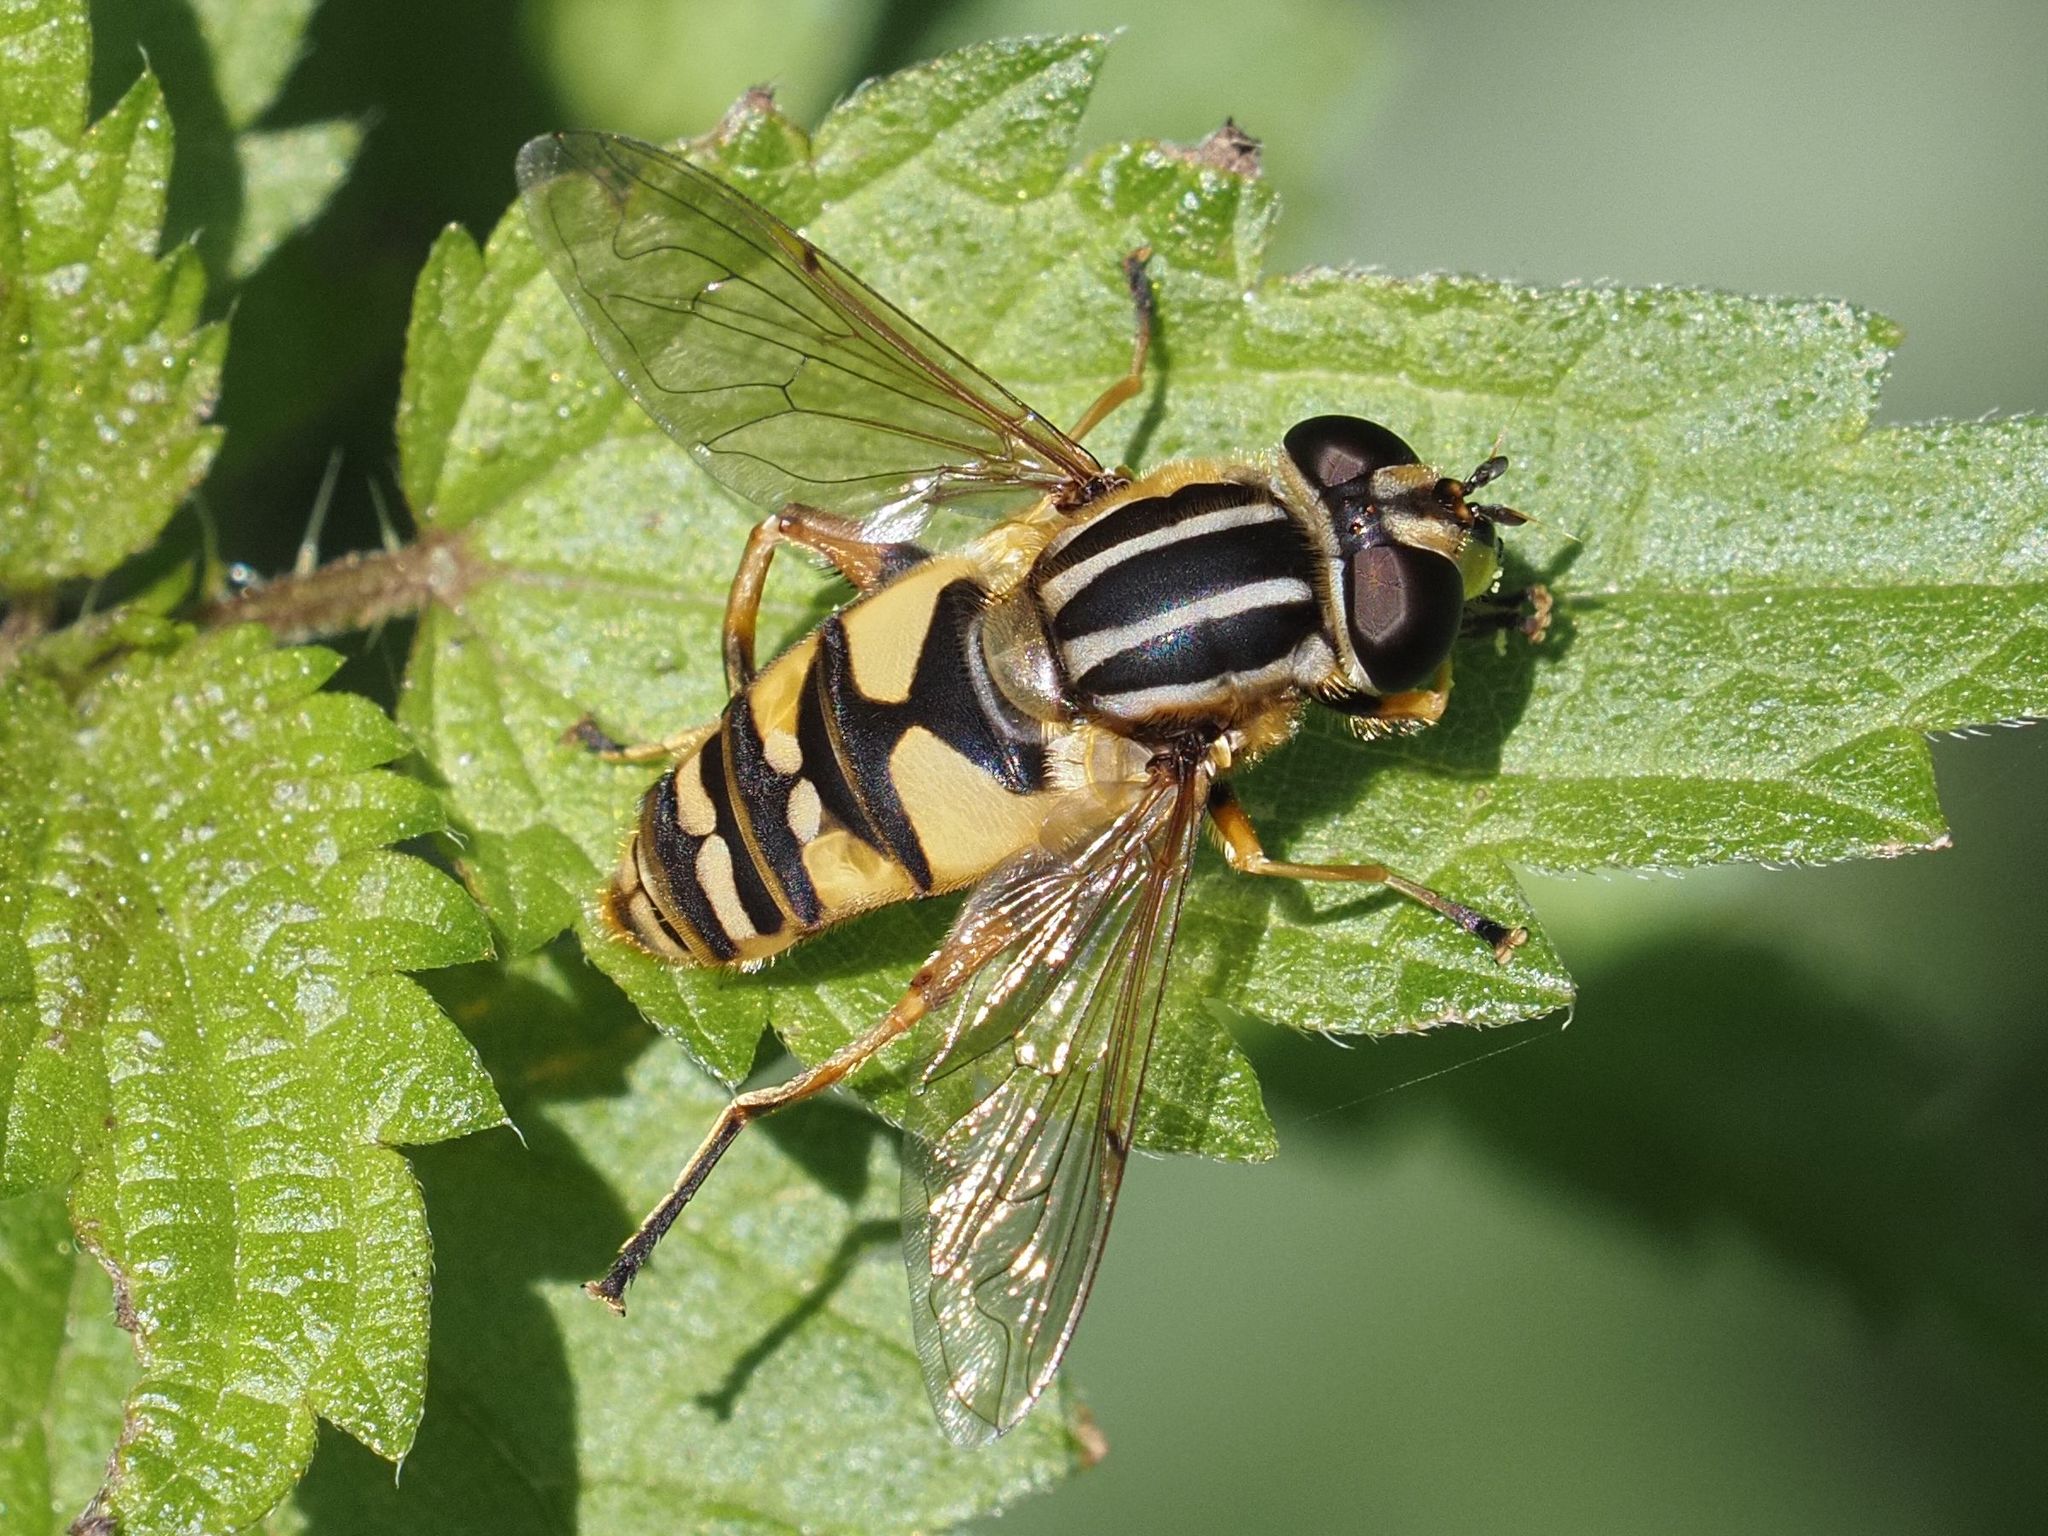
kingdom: Animalia
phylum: Arthropoda
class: Insecta
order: Diptera
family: Syrphidae
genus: Helophilus
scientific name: Helophilus pendulus
